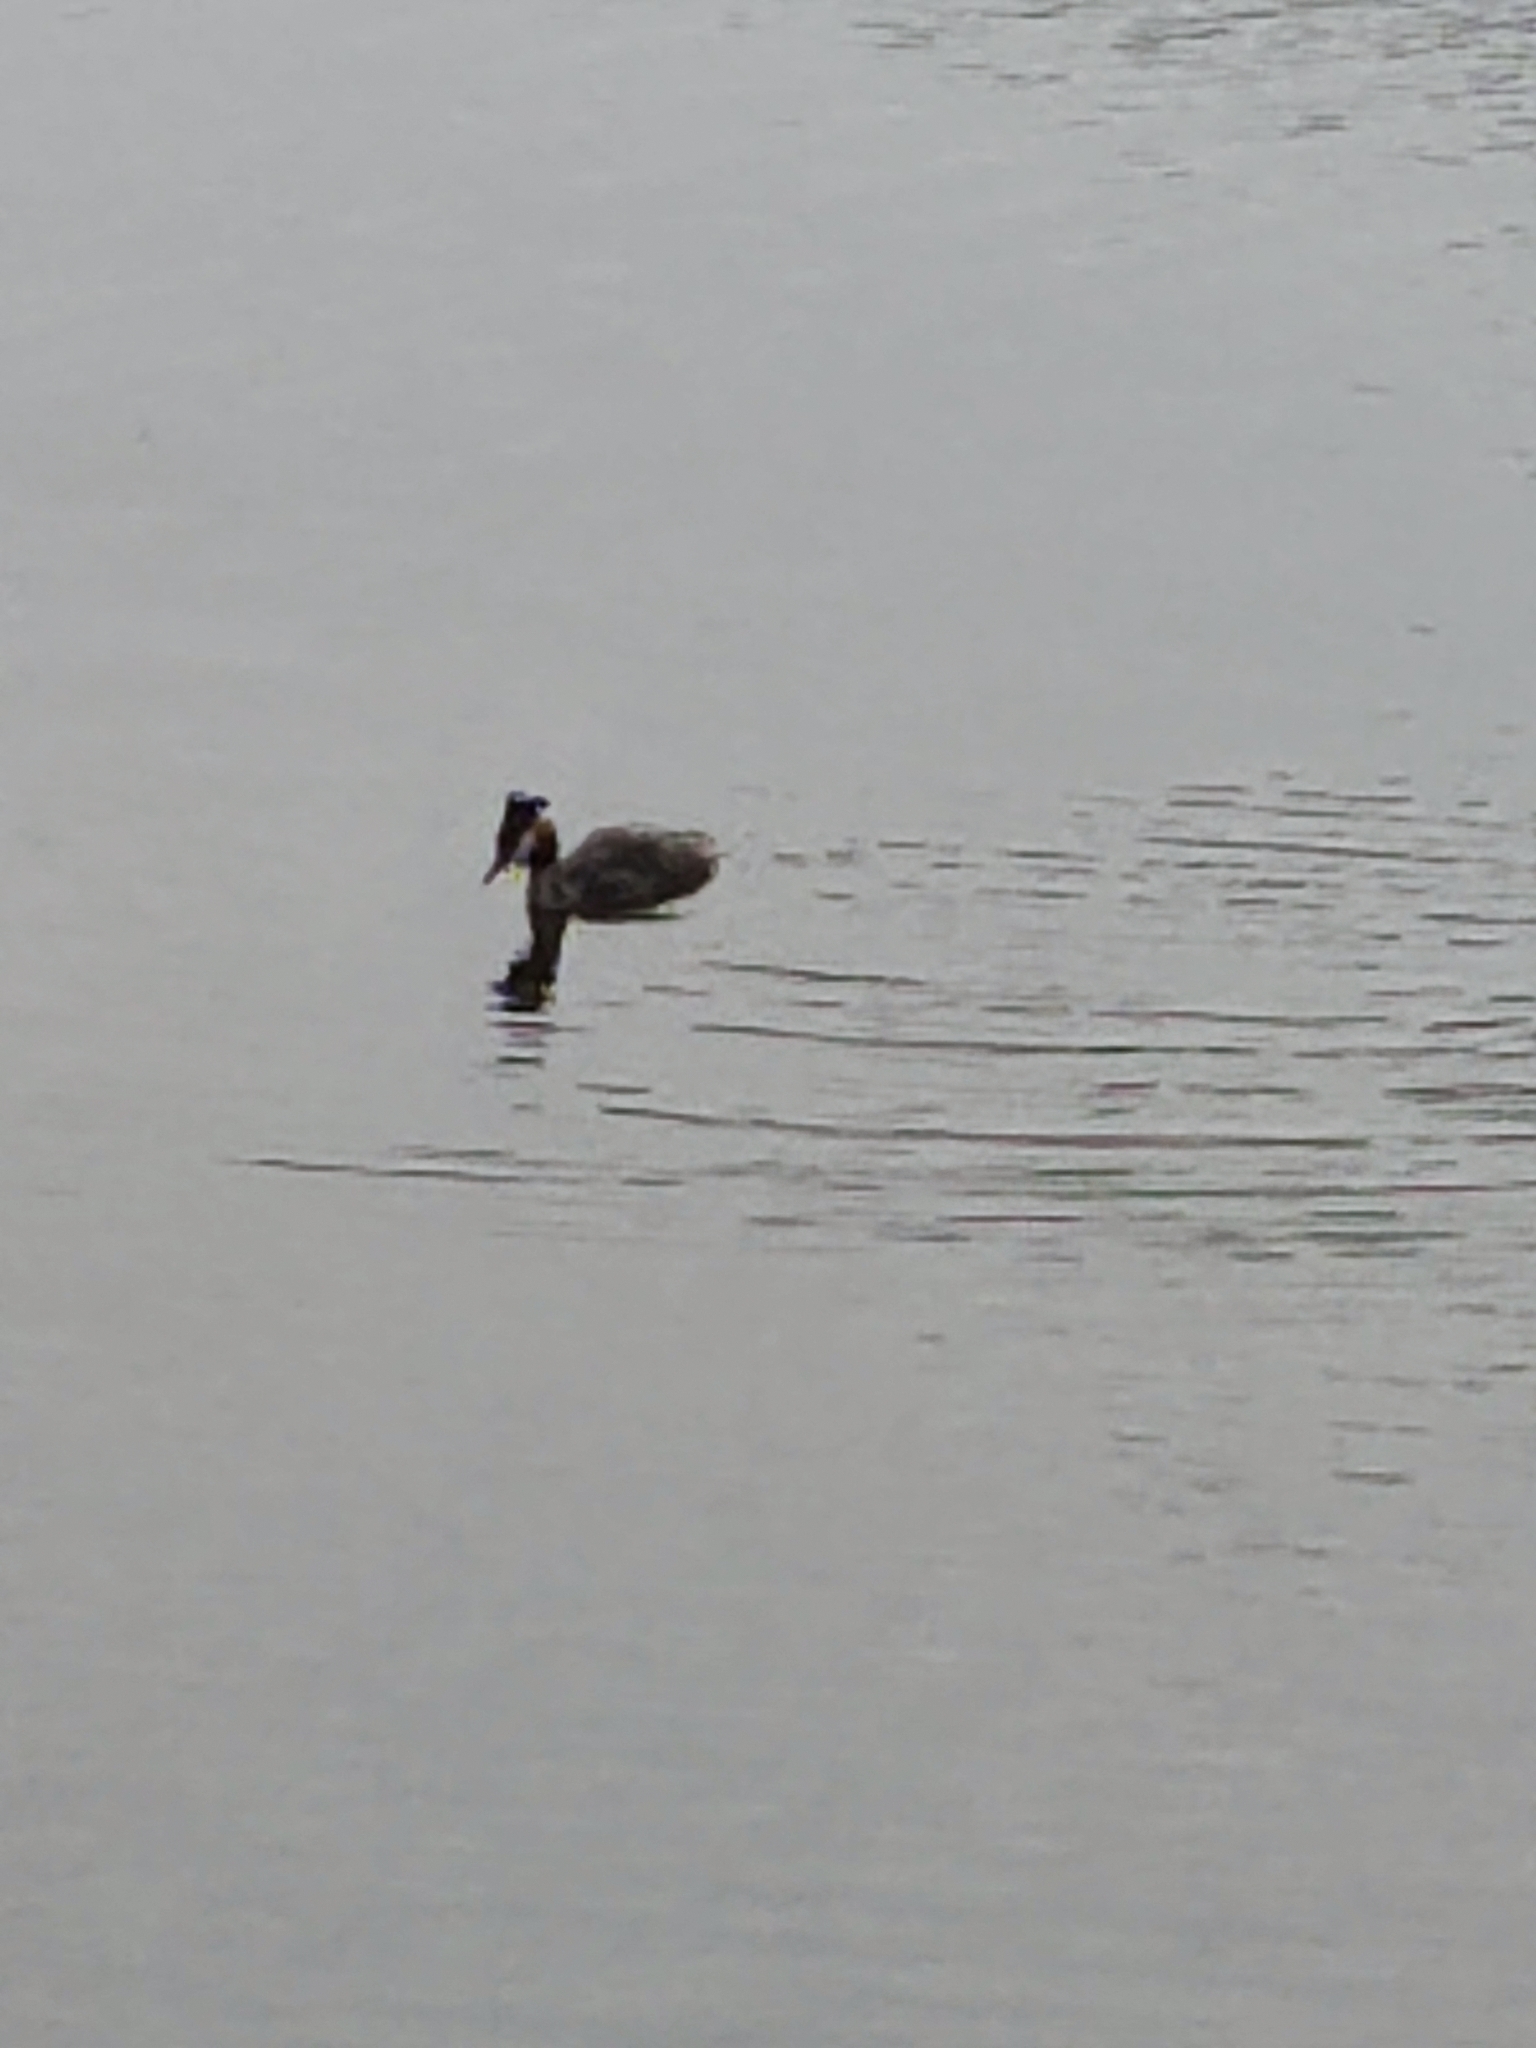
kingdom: Animalia
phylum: Chordata
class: Aves
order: Podicipediformes
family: Podicipedidae
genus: Podiceps
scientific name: Podiceps cristatus
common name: Great crested grebe
